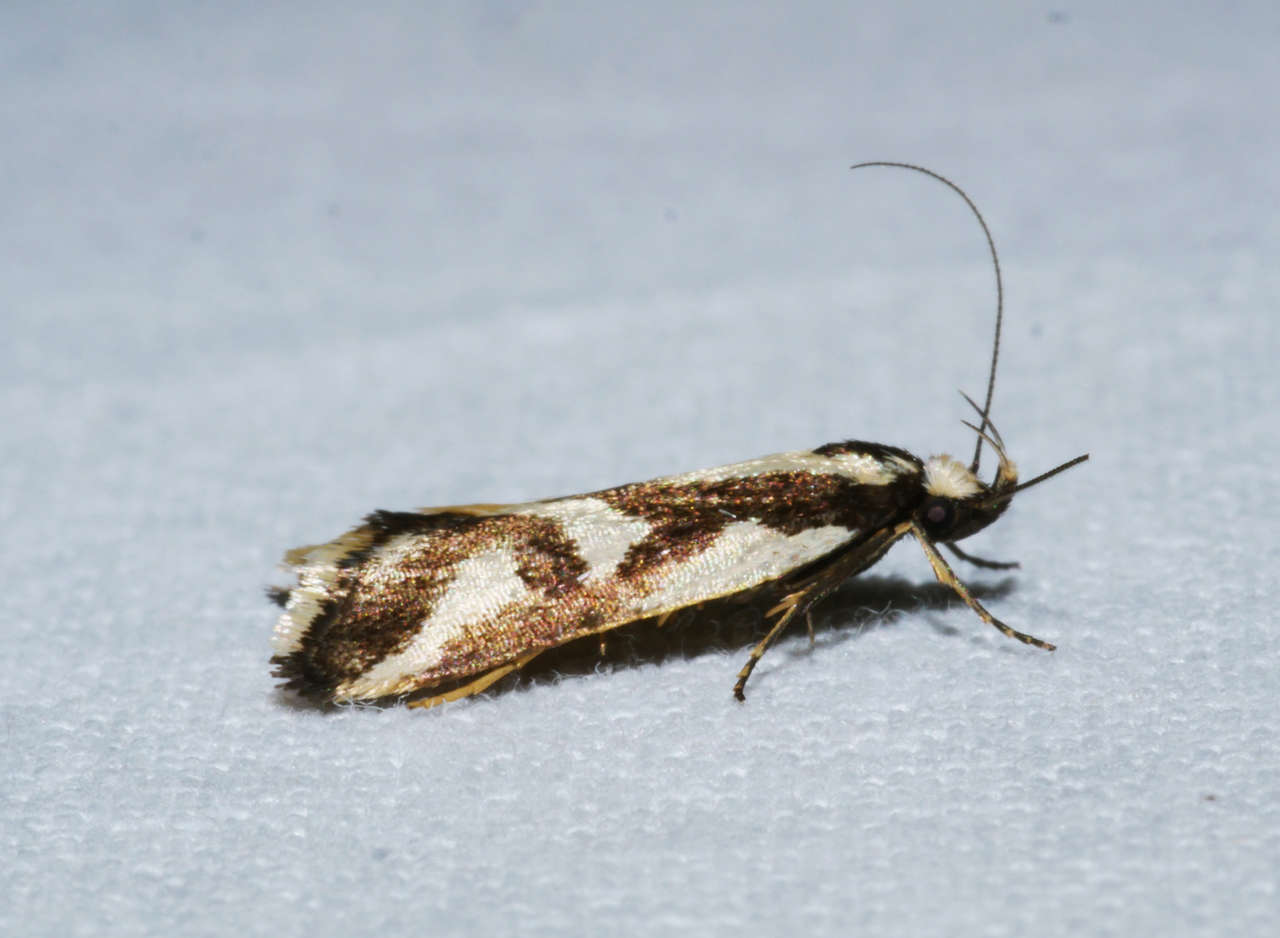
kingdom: Animalia
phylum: Arthropoda
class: Insecta
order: Lepidoptera
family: Oecophoridae
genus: Epithymema
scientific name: Epithymema incomposita
